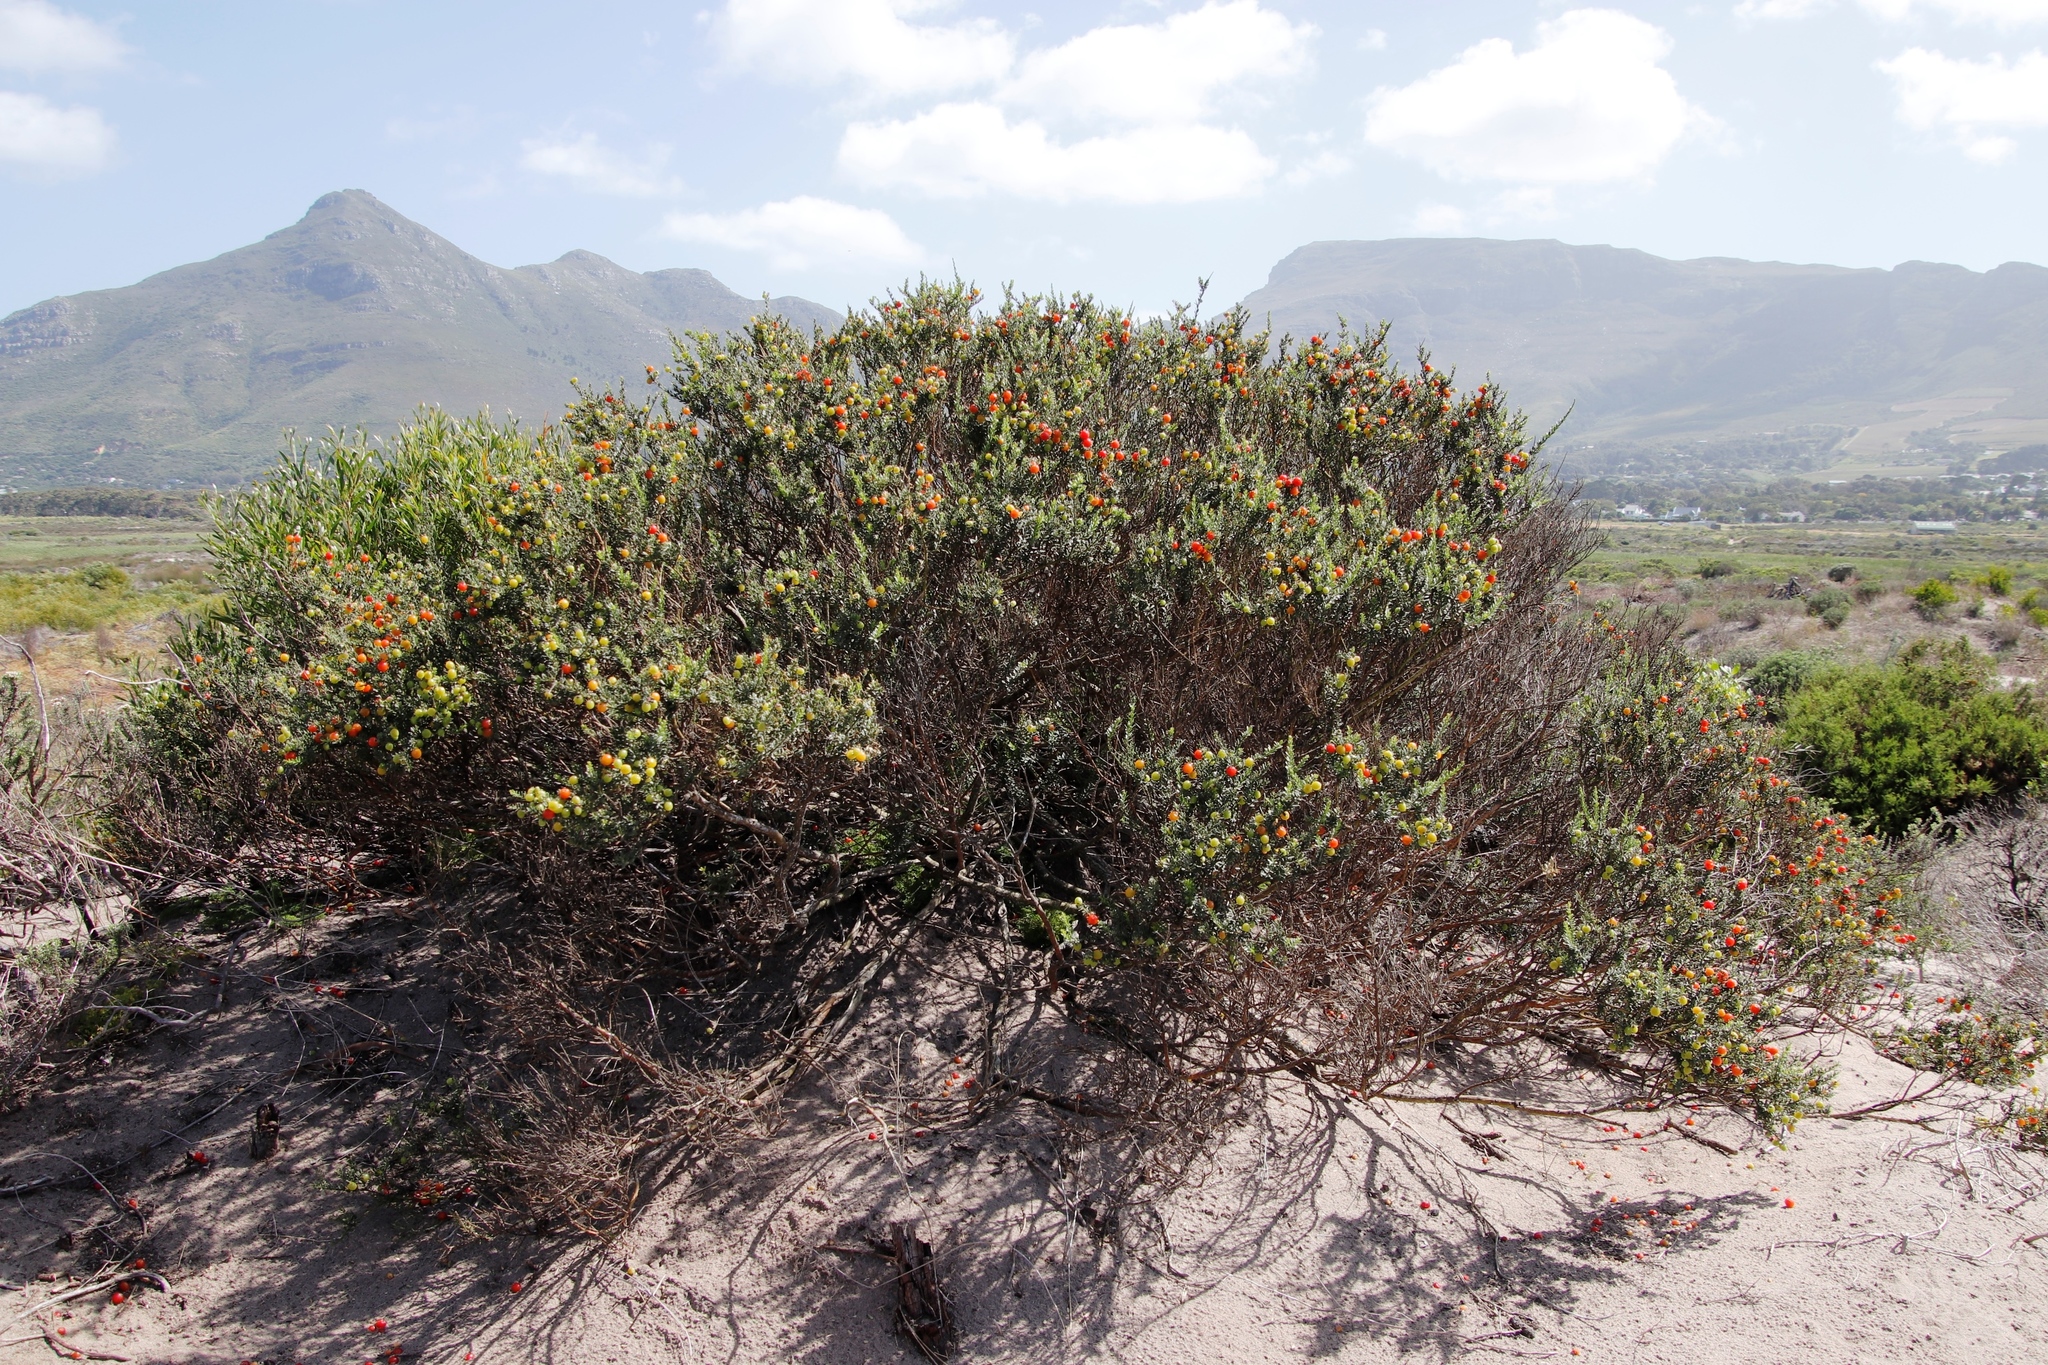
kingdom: Plantae
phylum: Tracheophyta
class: Magnoliopsida
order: Fabales
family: Polygalaceae
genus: Muraltia
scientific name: Muraltia spinosa
